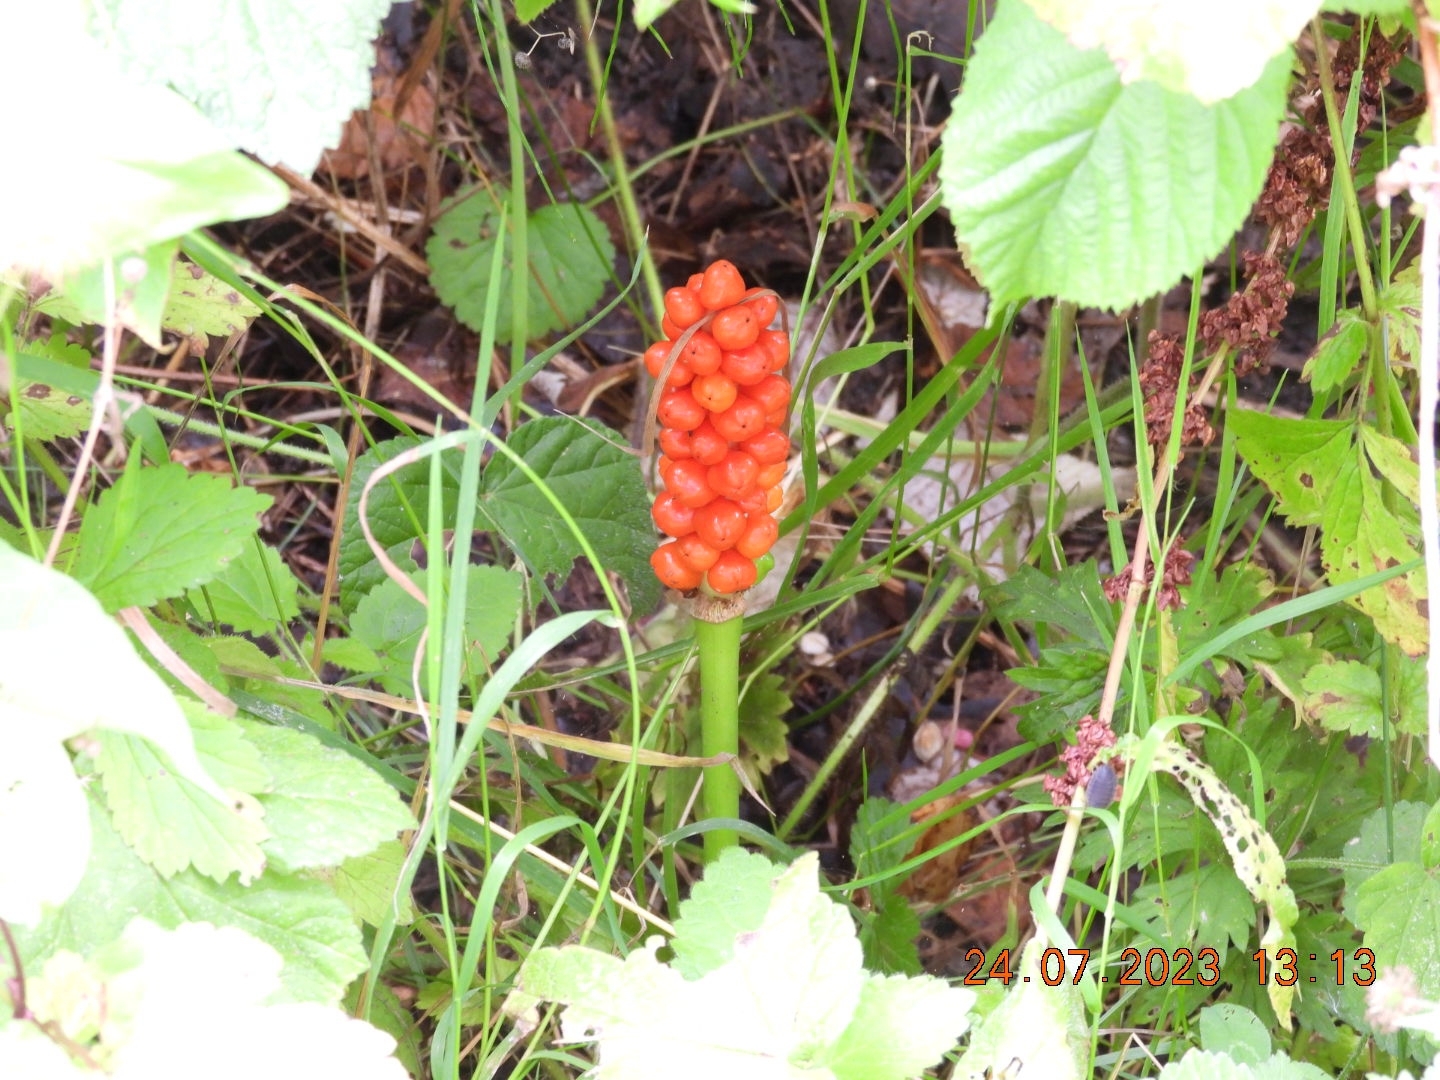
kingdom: Plantae
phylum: Tracheophyta
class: Liliopsida
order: Alismatales
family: Araceae
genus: Arum
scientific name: Arum maculatum
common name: Lords-and-ladies
